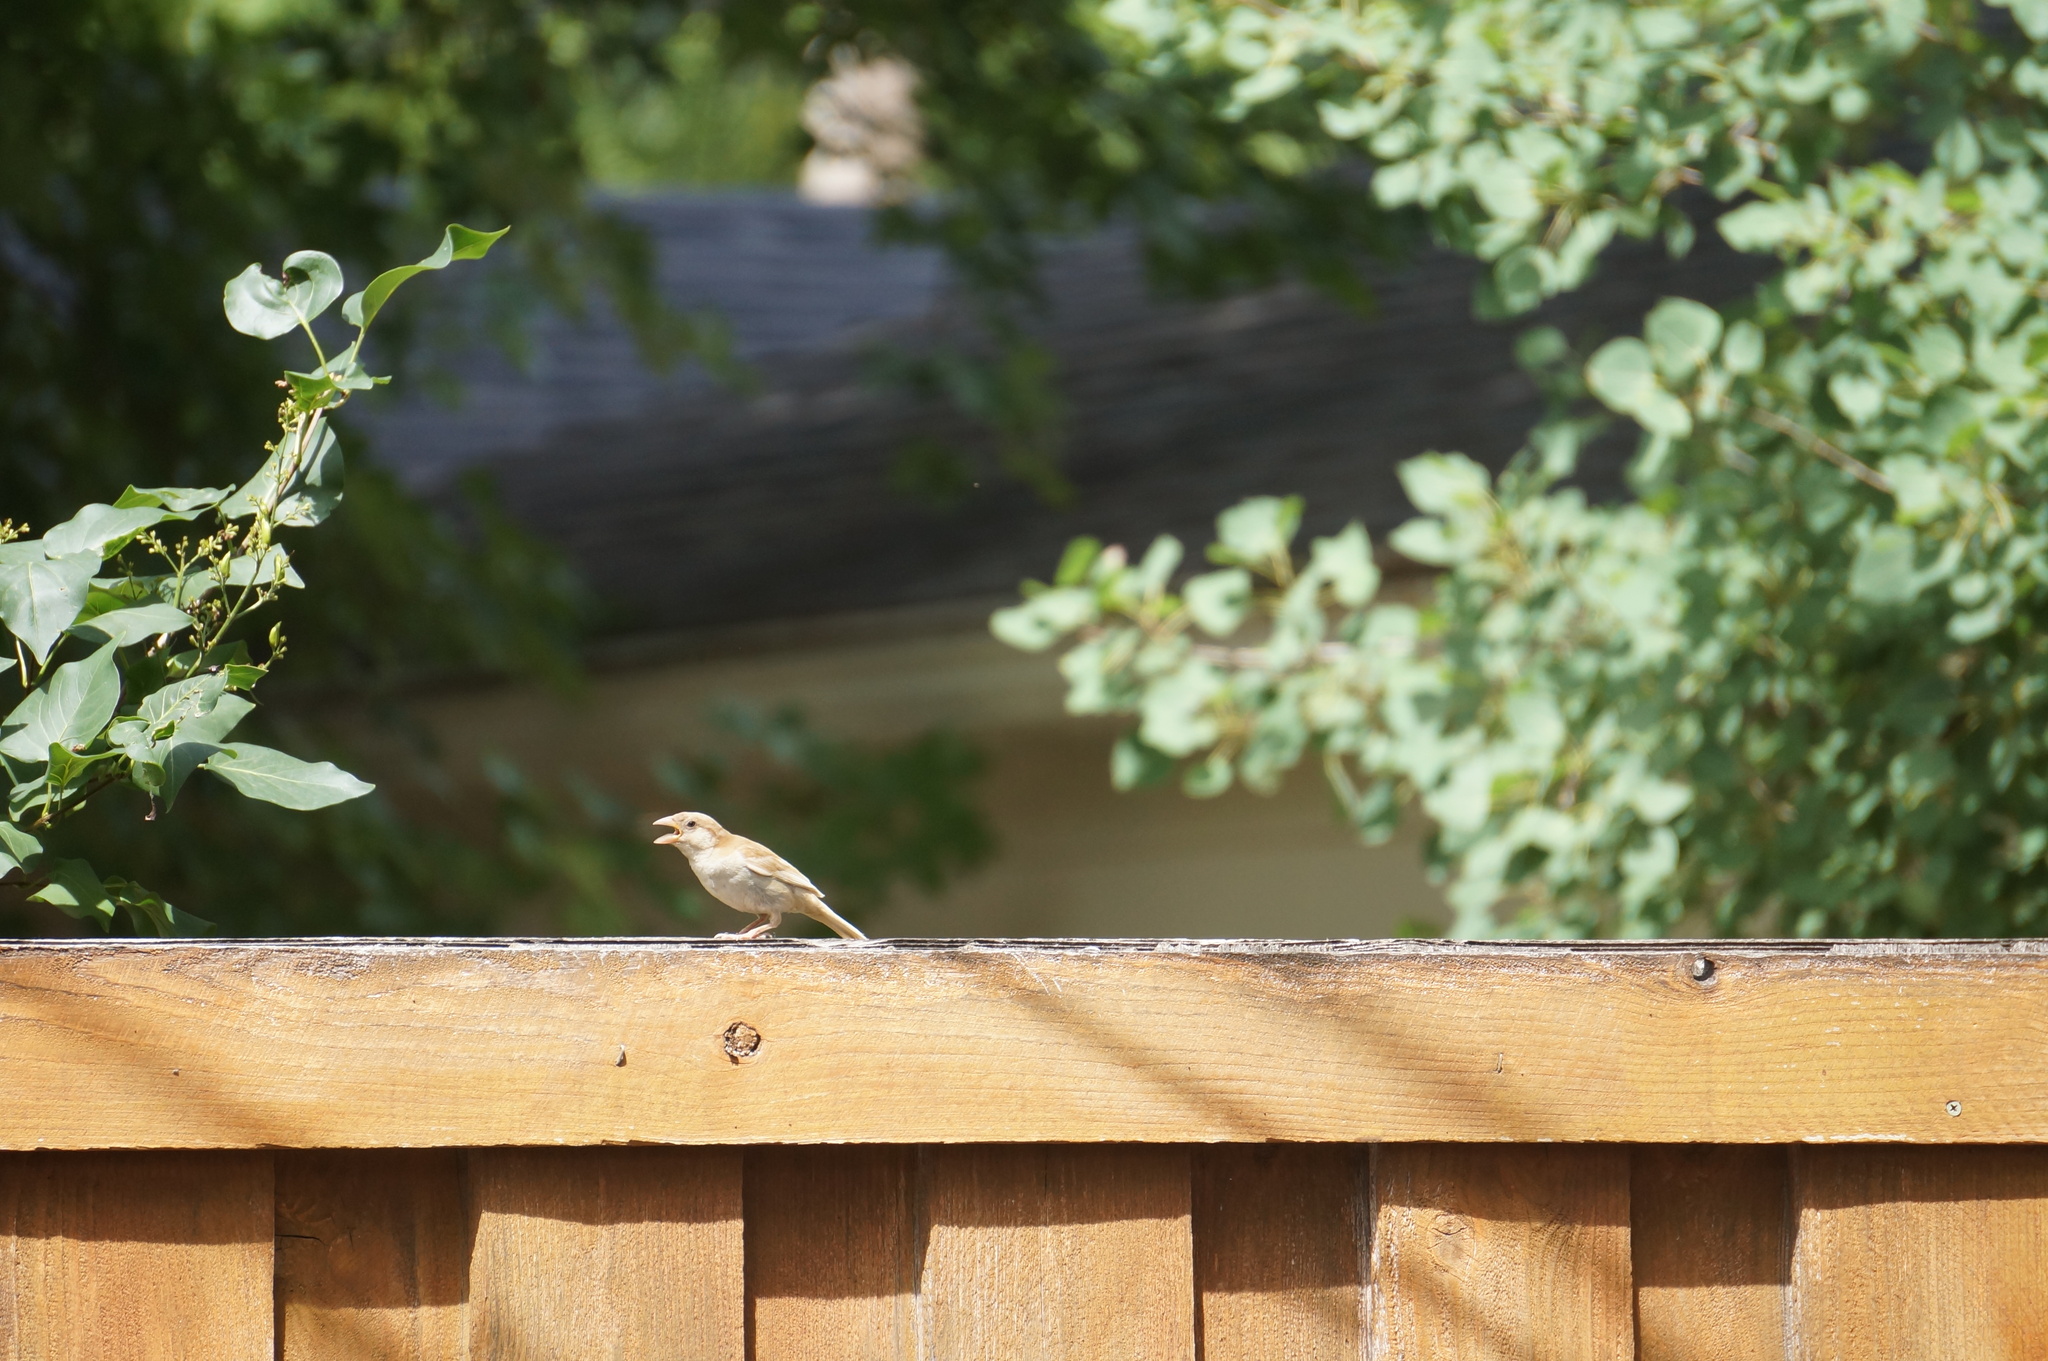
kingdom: Animalia
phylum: Chordata
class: Aves
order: Passeriformes
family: Passeridae
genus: Passer
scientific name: Passer domesticus
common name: House sparrow
